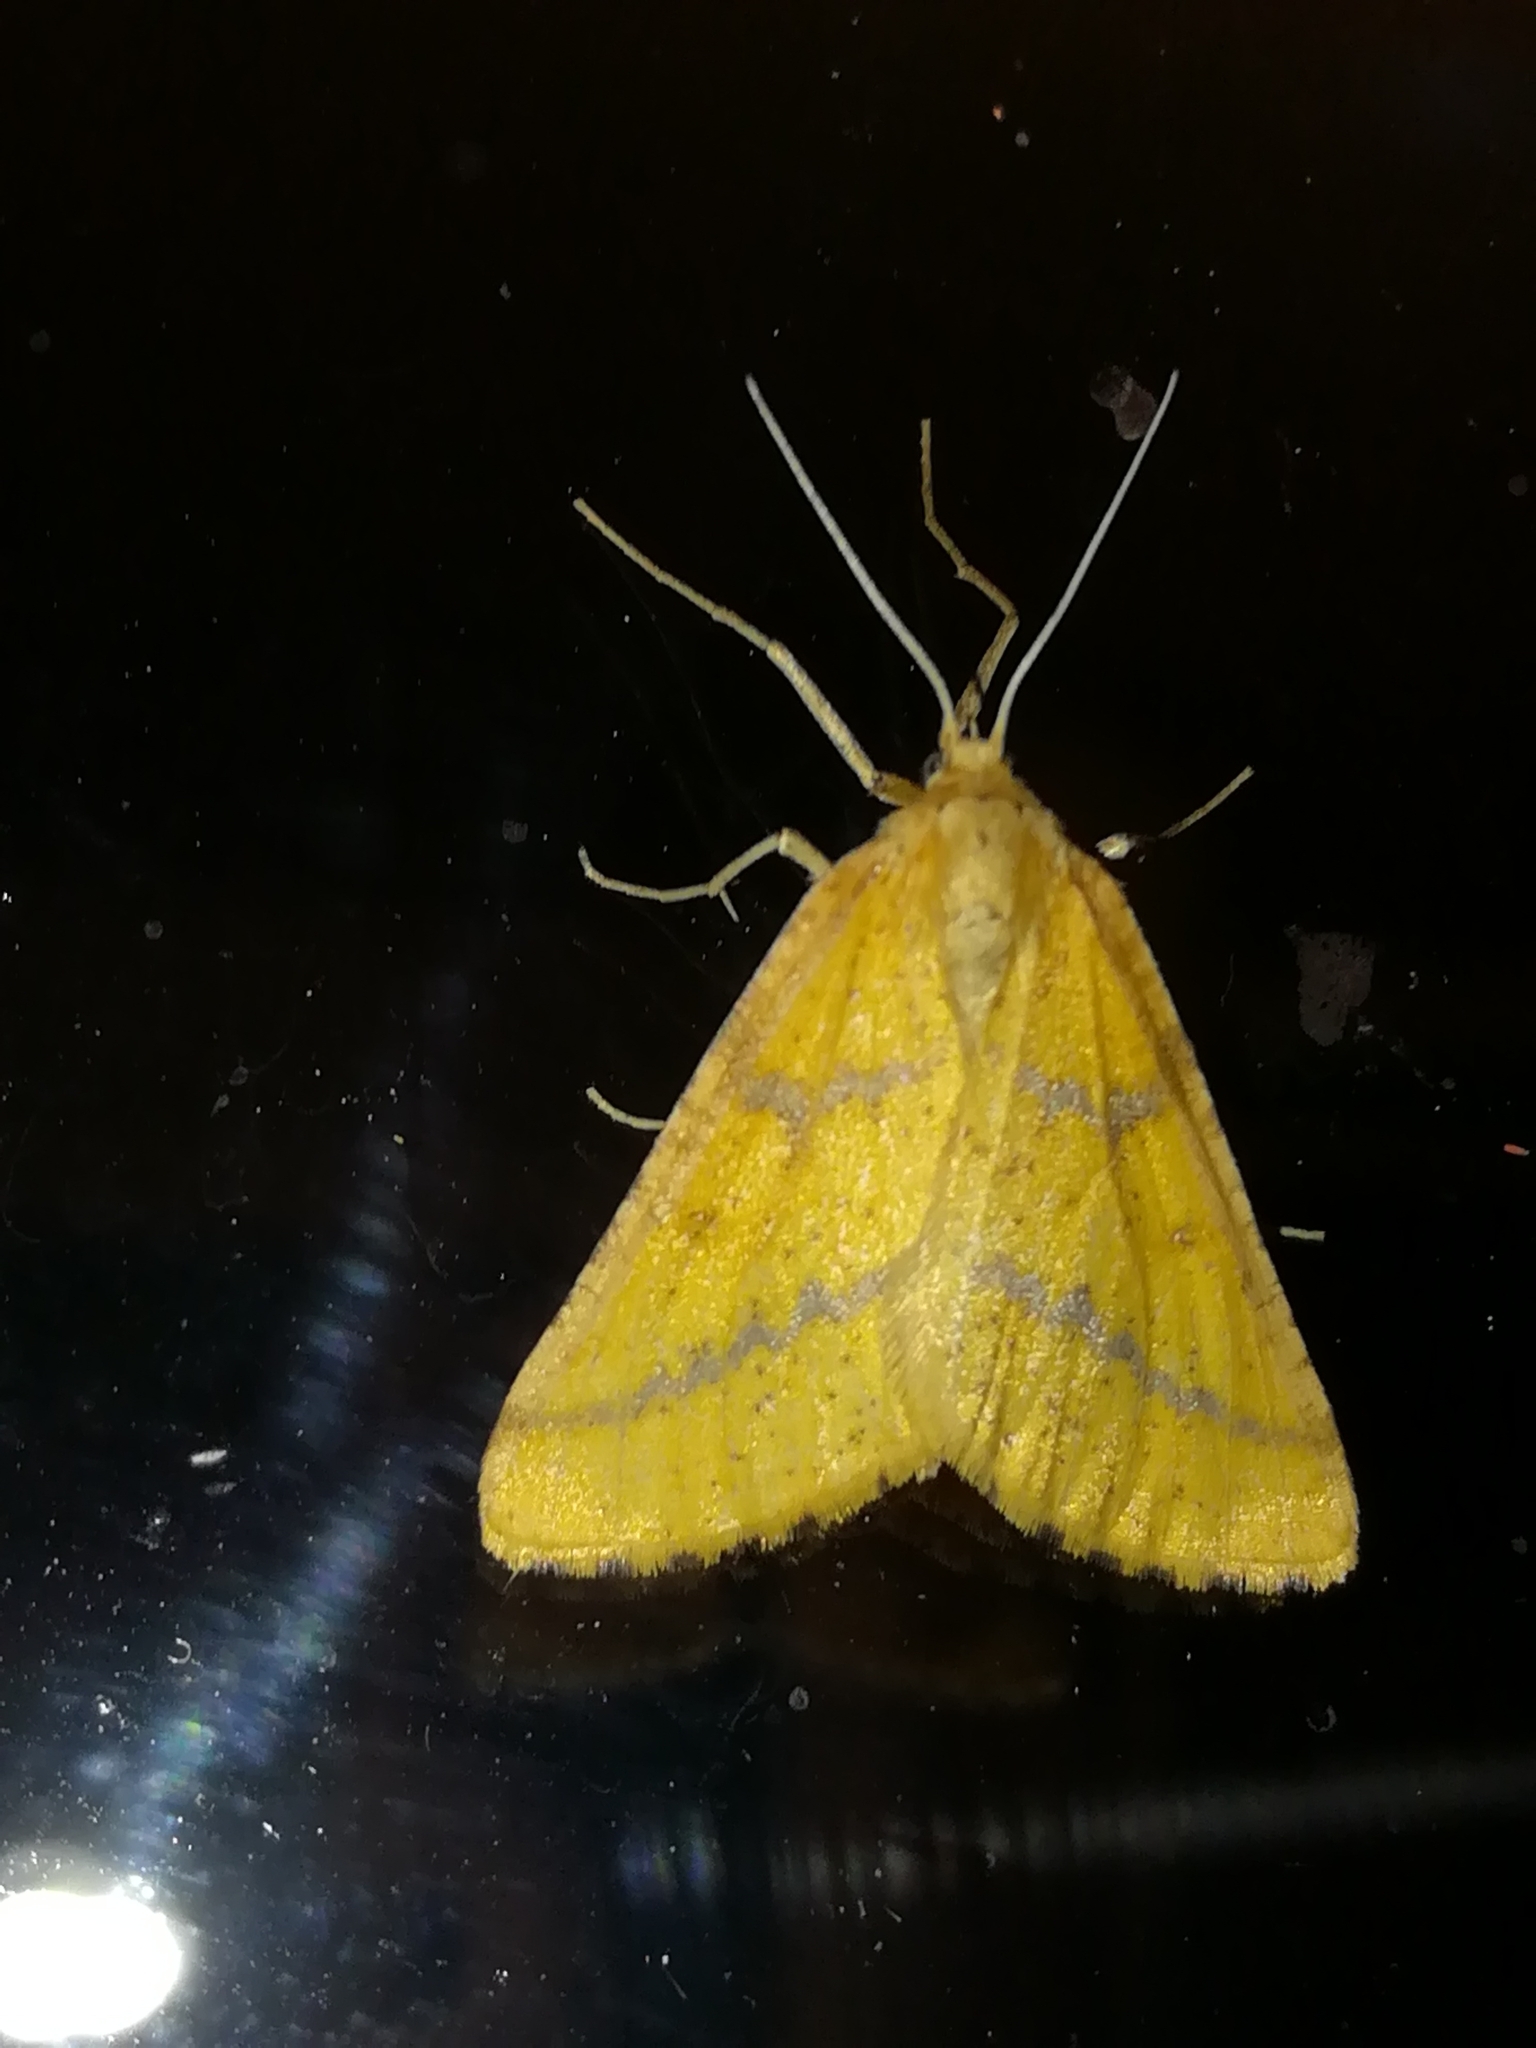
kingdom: Animalia
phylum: Arthropoda
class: Insecta
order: Lepidoptera
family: Geometridae
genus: Aspitates
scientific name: Aspitates ochrearia
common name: Yellow belle
